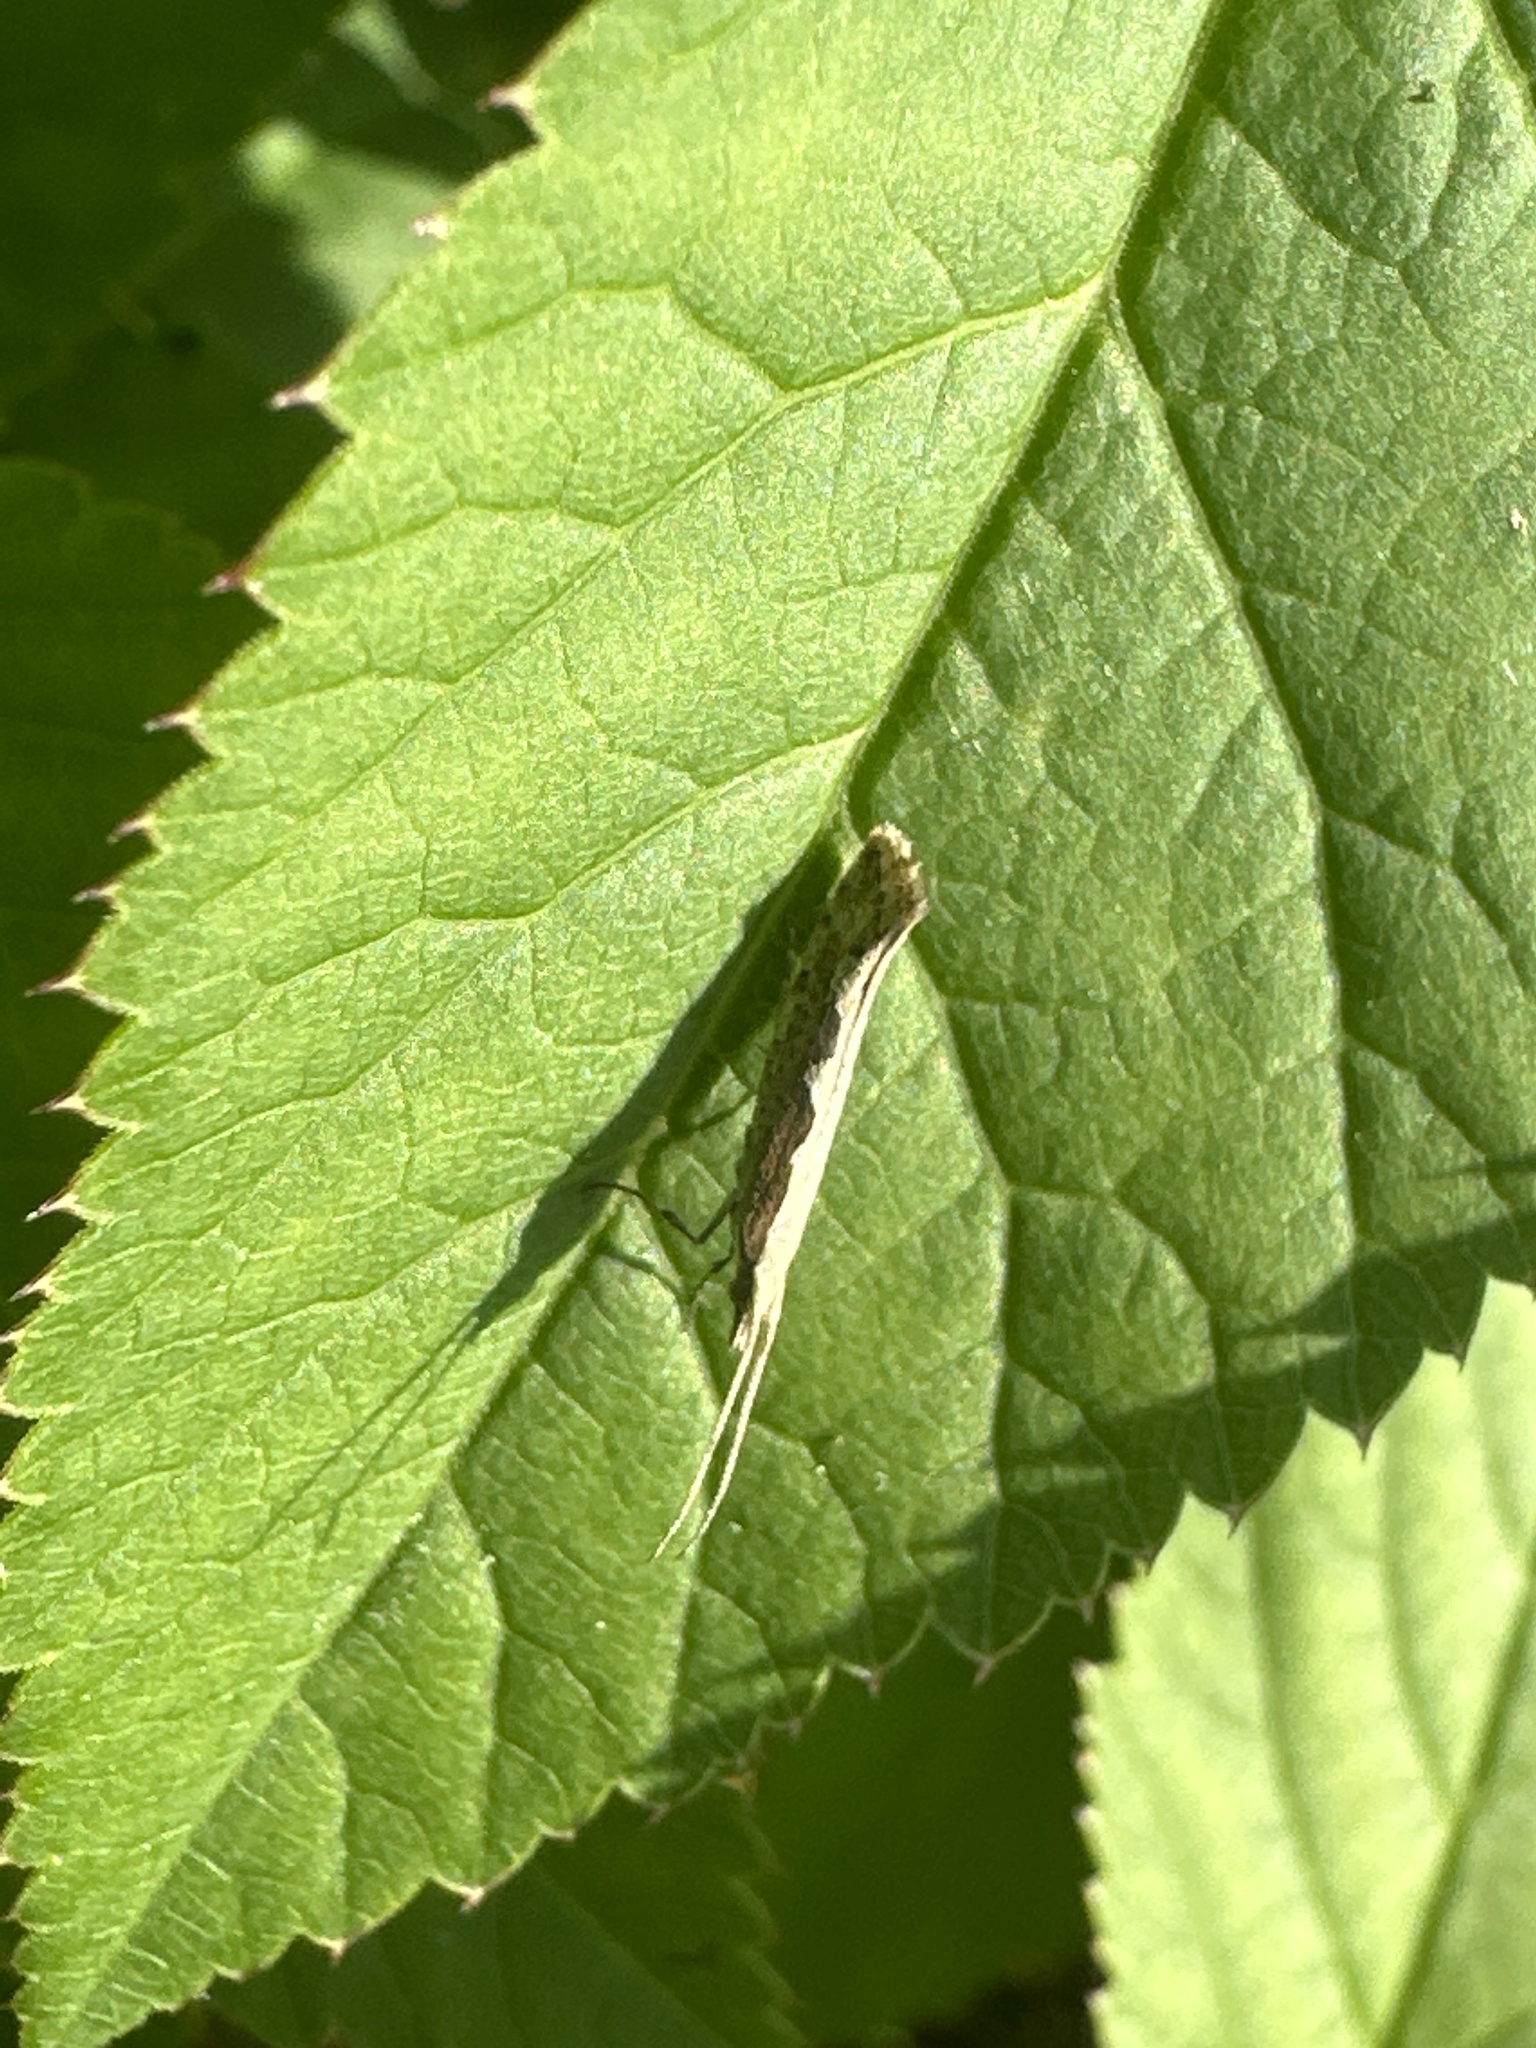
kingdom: Animalia
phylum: Arthropoda
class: Insecta
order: Lepidoptera
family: Plutellidae
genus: Plutella
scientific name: Plutella xylostella
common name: Diamond-back moth
